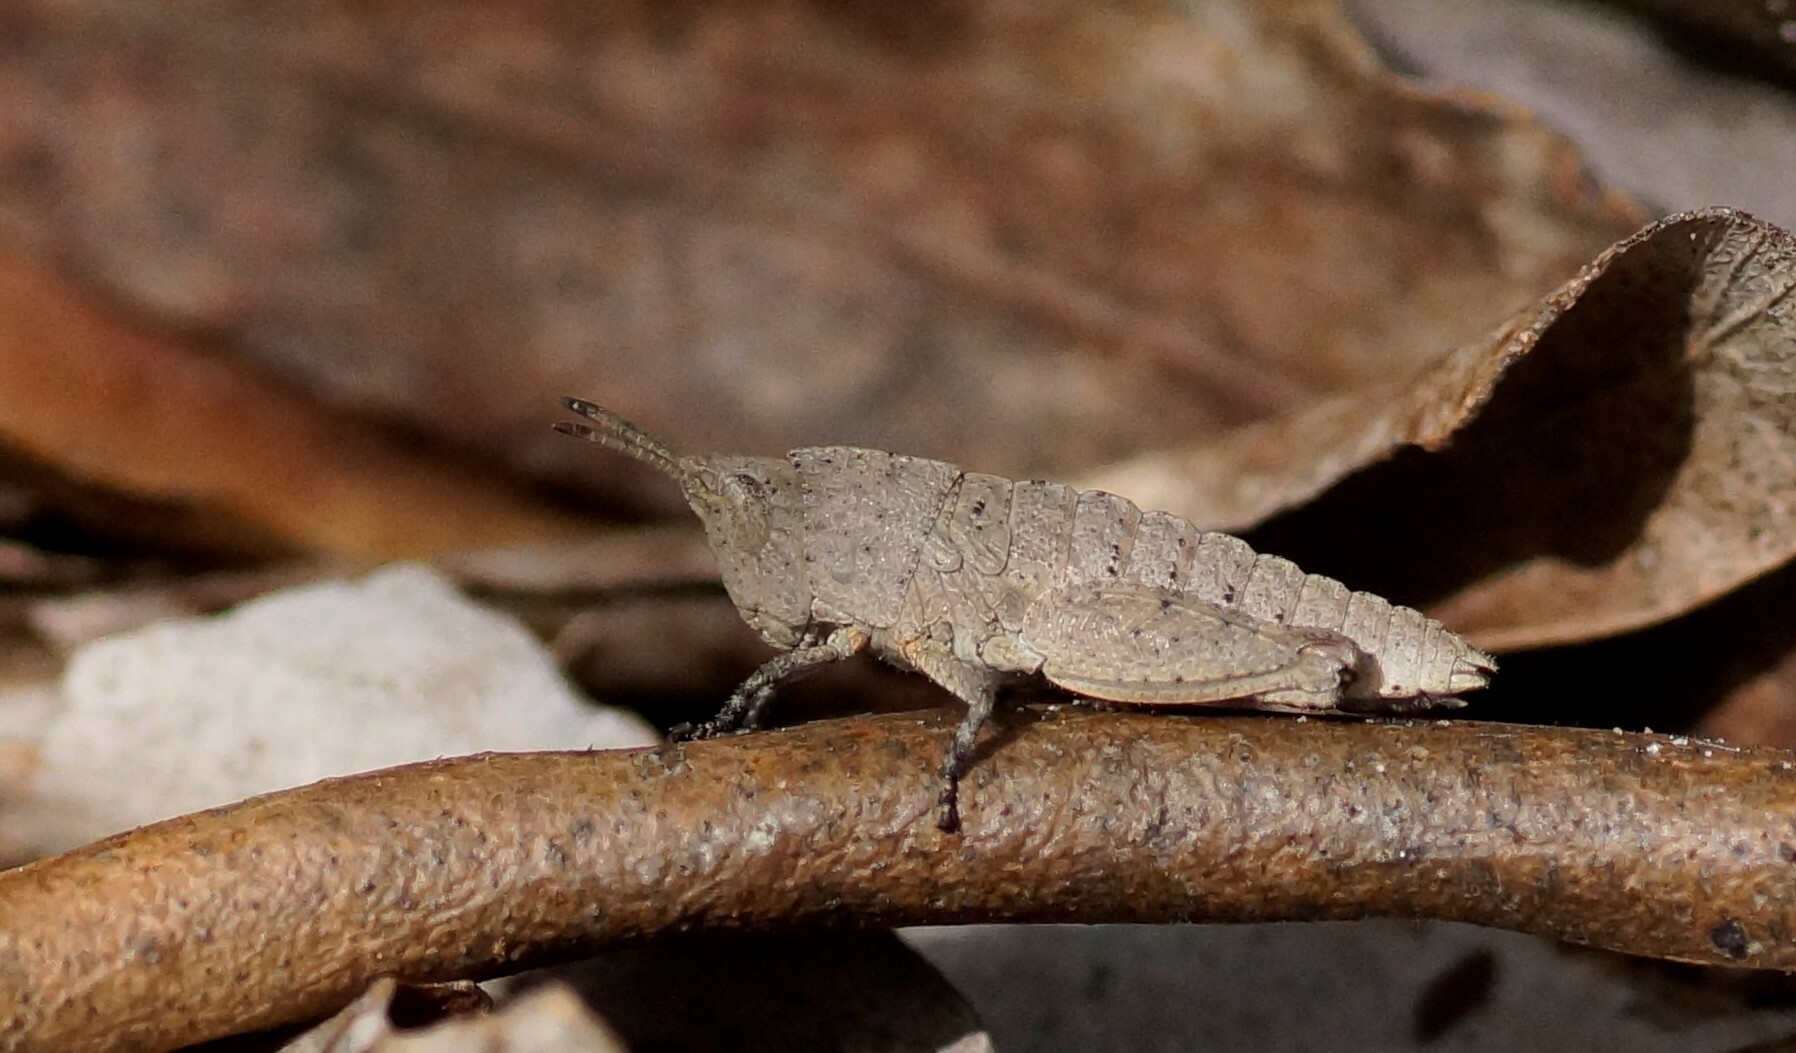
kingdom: Animalia
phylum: Arthropoda
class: Insecta
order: Orthoptera
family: Acrididae
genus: Goniaea
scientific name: Goniaea australasiae
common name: Gumleaf grasshopper
